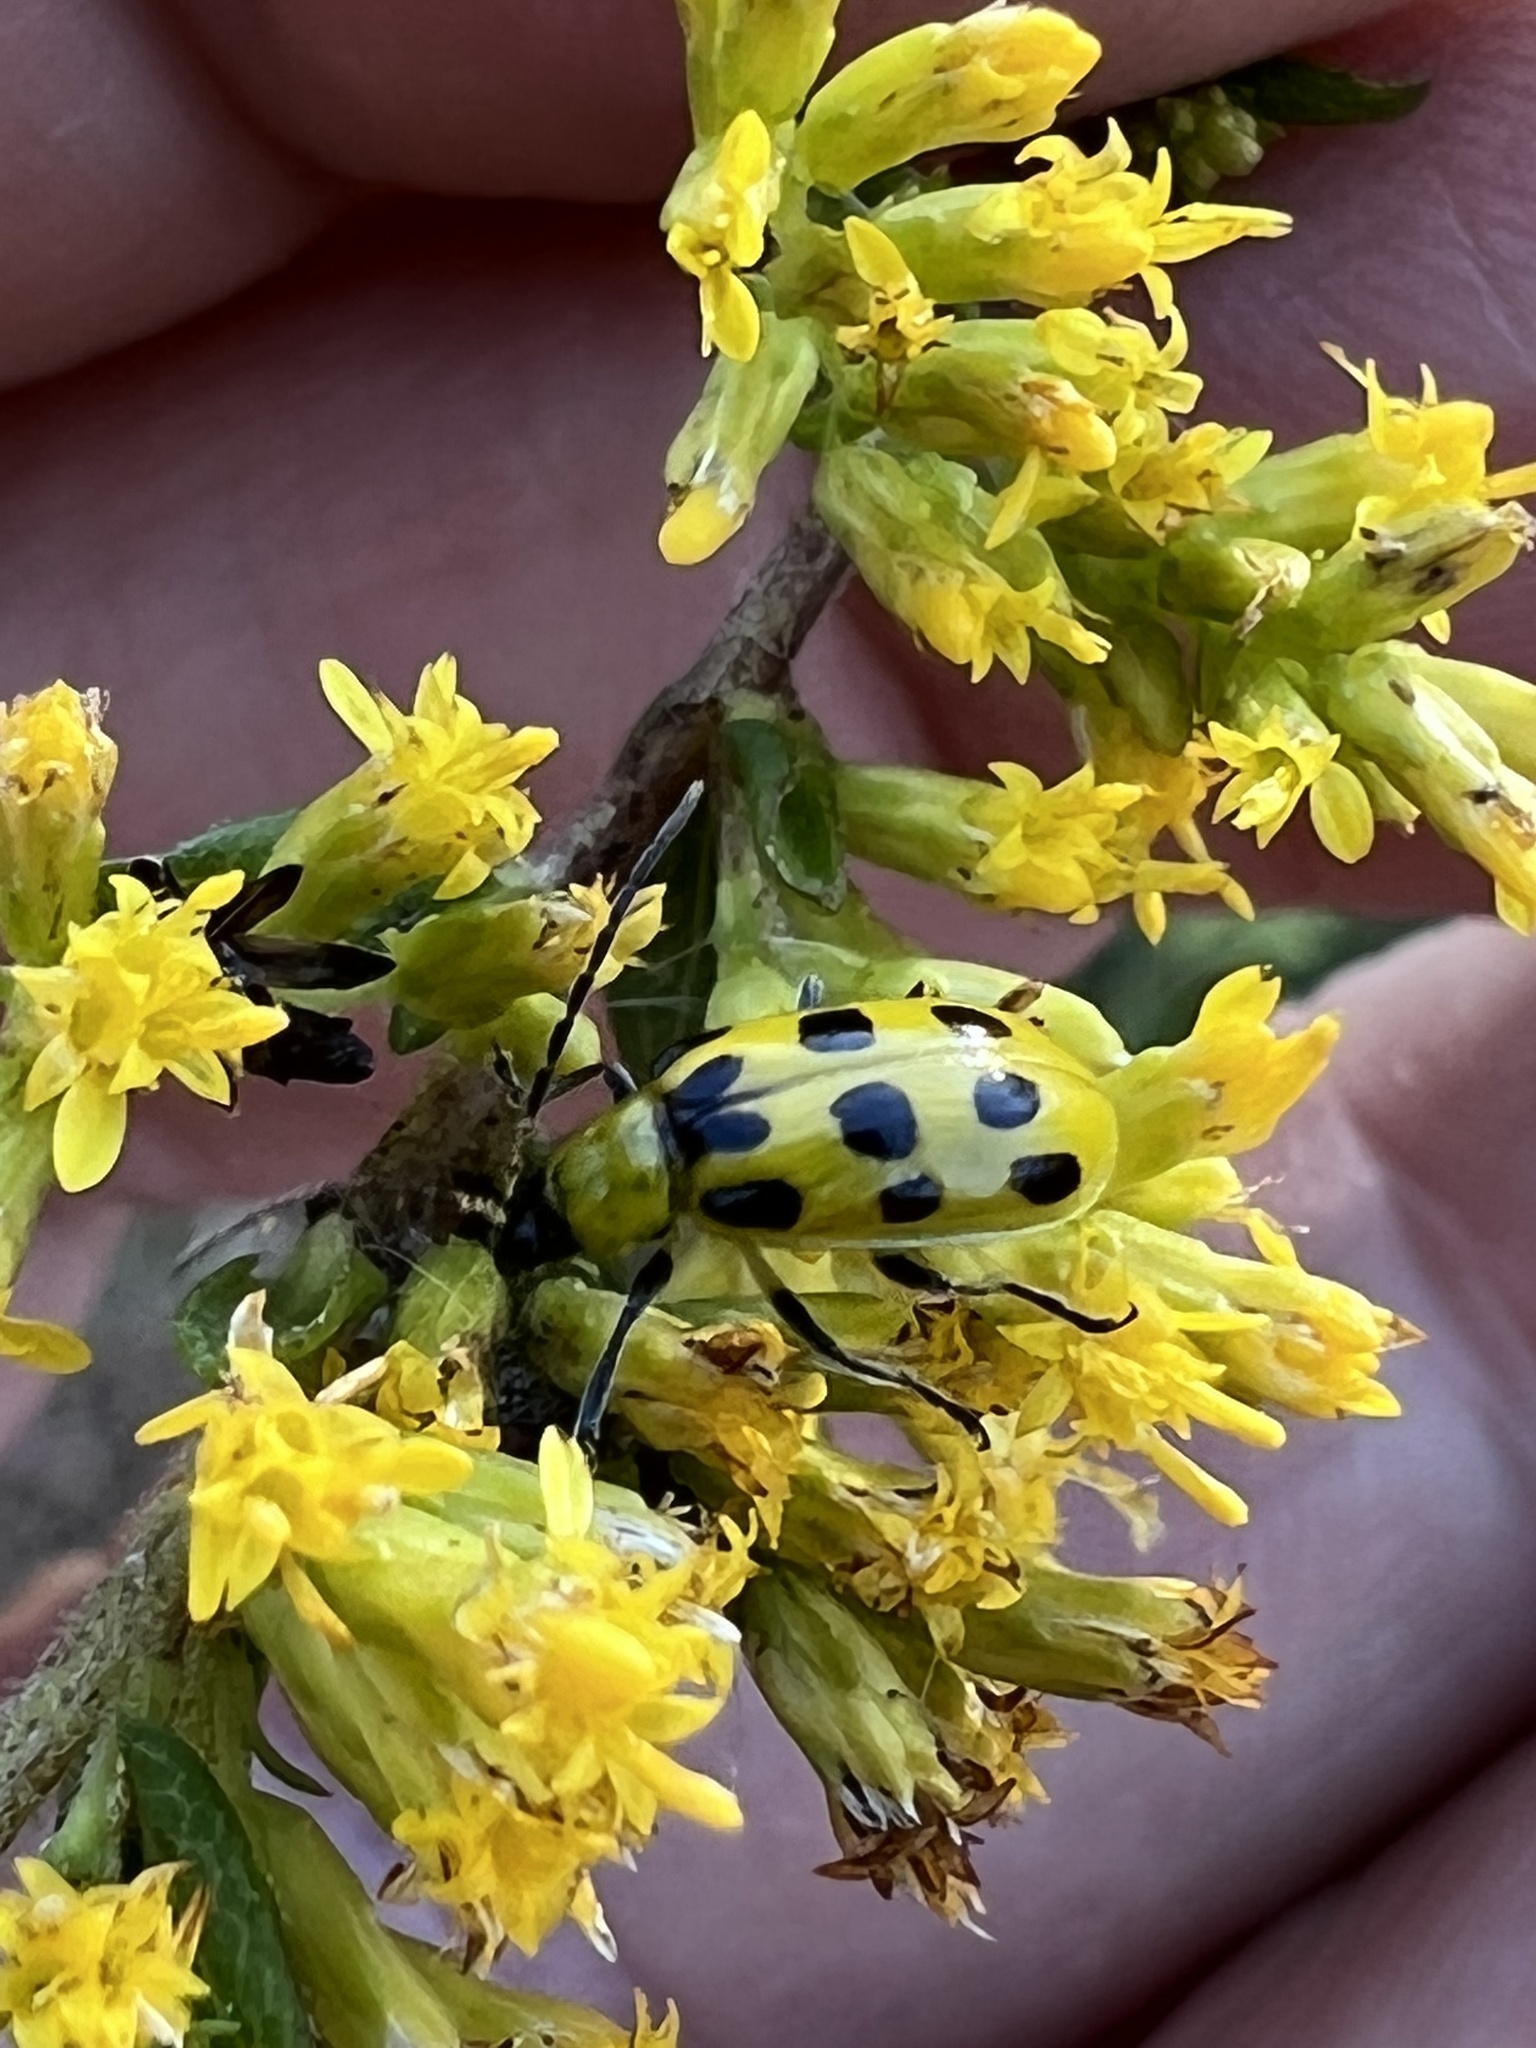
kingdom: Animalia
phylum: Arthropoda
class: Insecta
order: Coleoptera
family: Chrysomelidae
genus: Diabrotica
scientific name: Diabrotica undecimpunctata
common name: Spotted cucumber beetle
